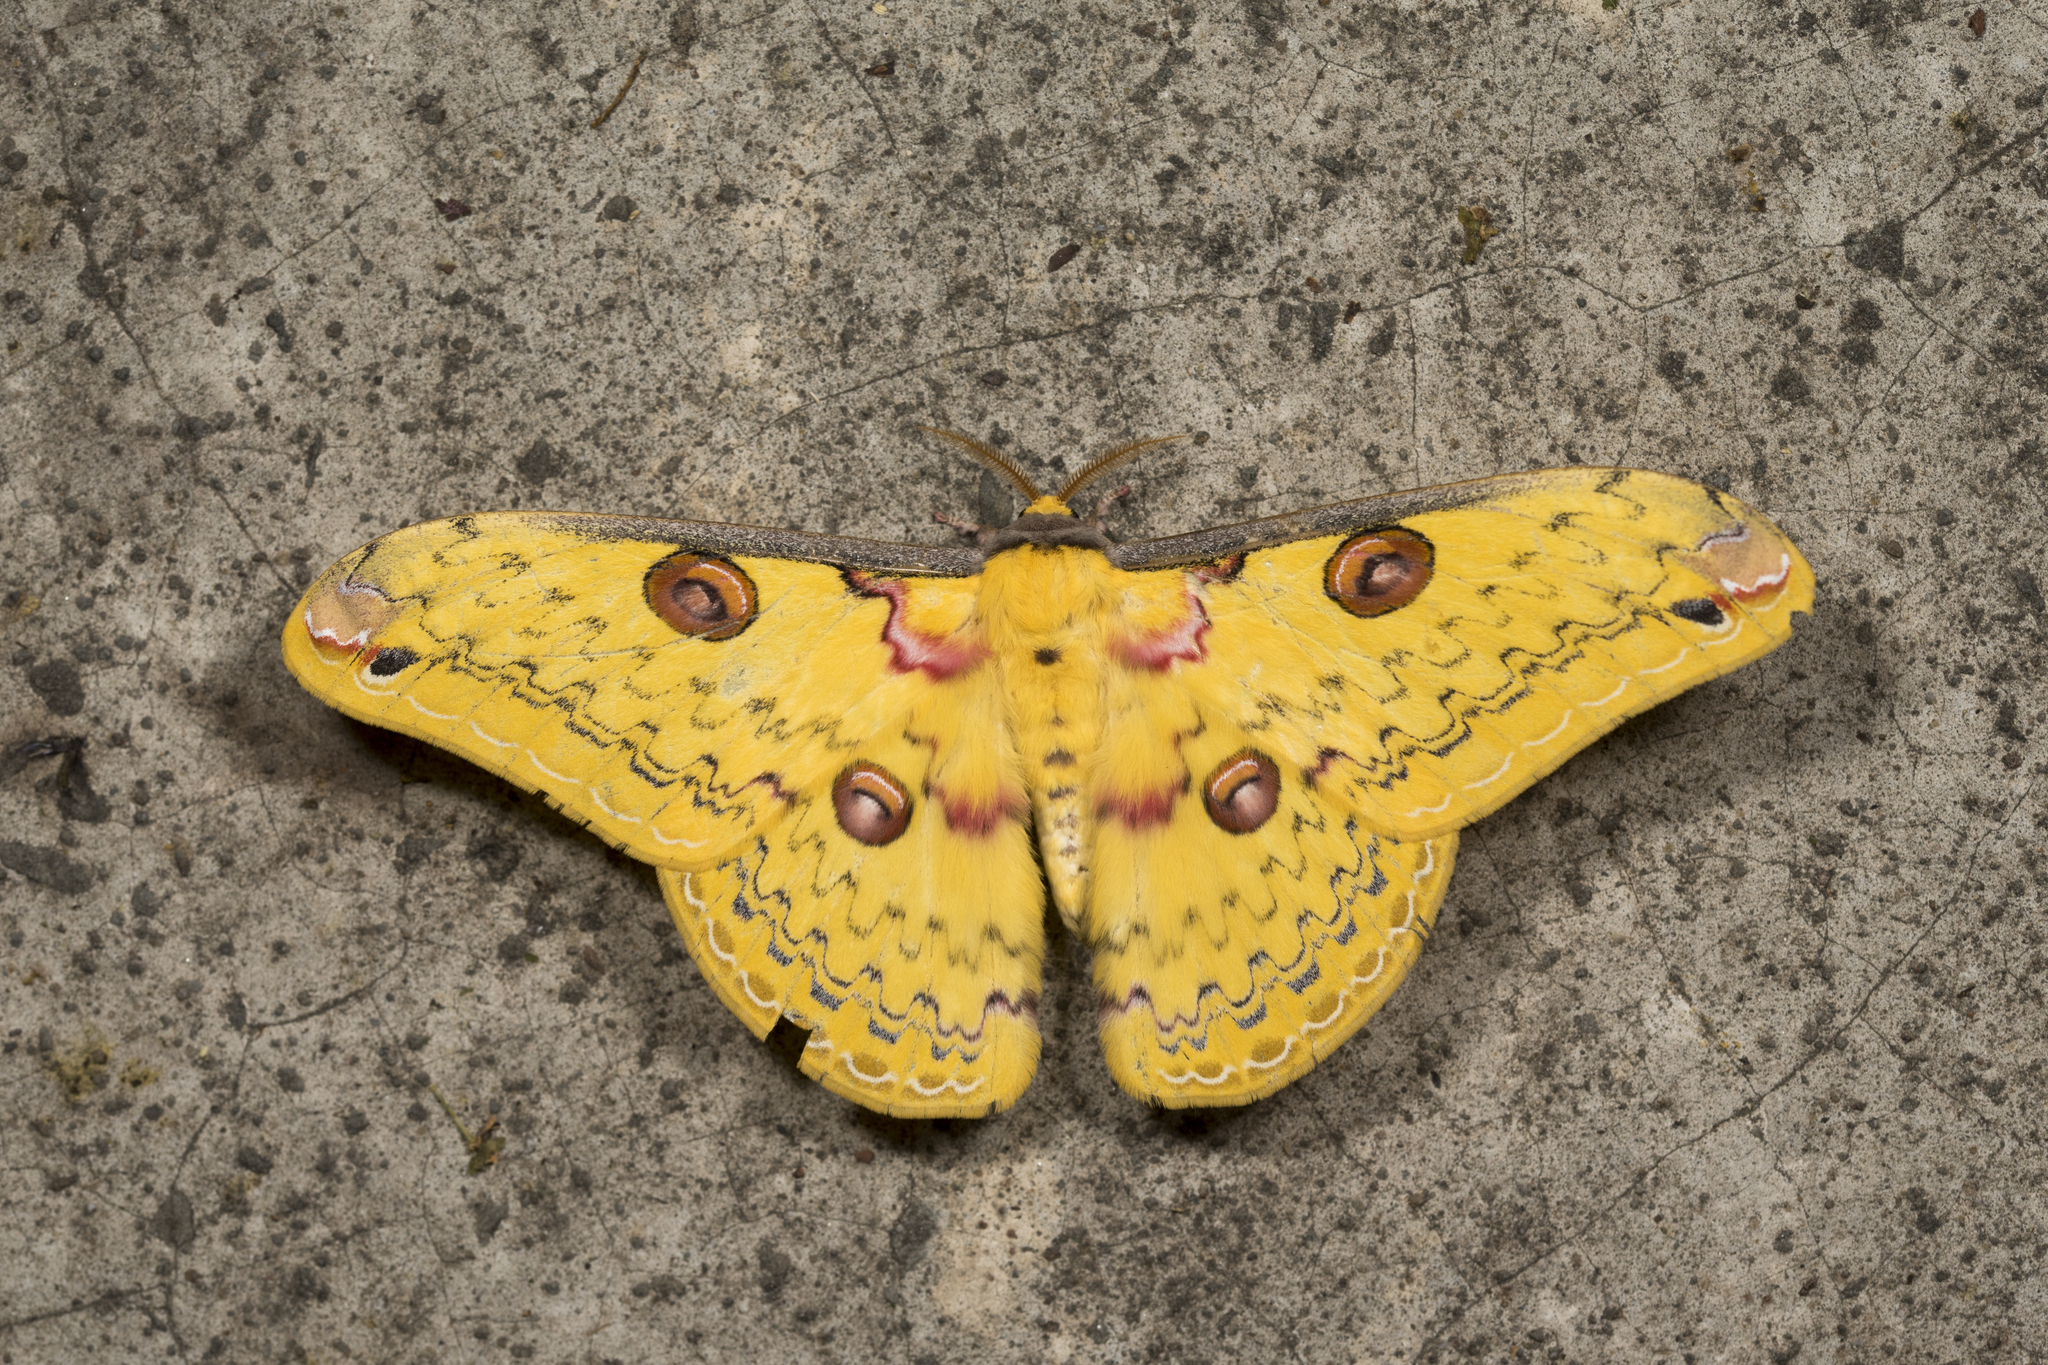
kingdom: Animalia
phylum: Arthropoda
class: Insecta
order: Lepidoptera
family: Saturniidae
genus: Loepa
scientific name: Loepa formosensis
